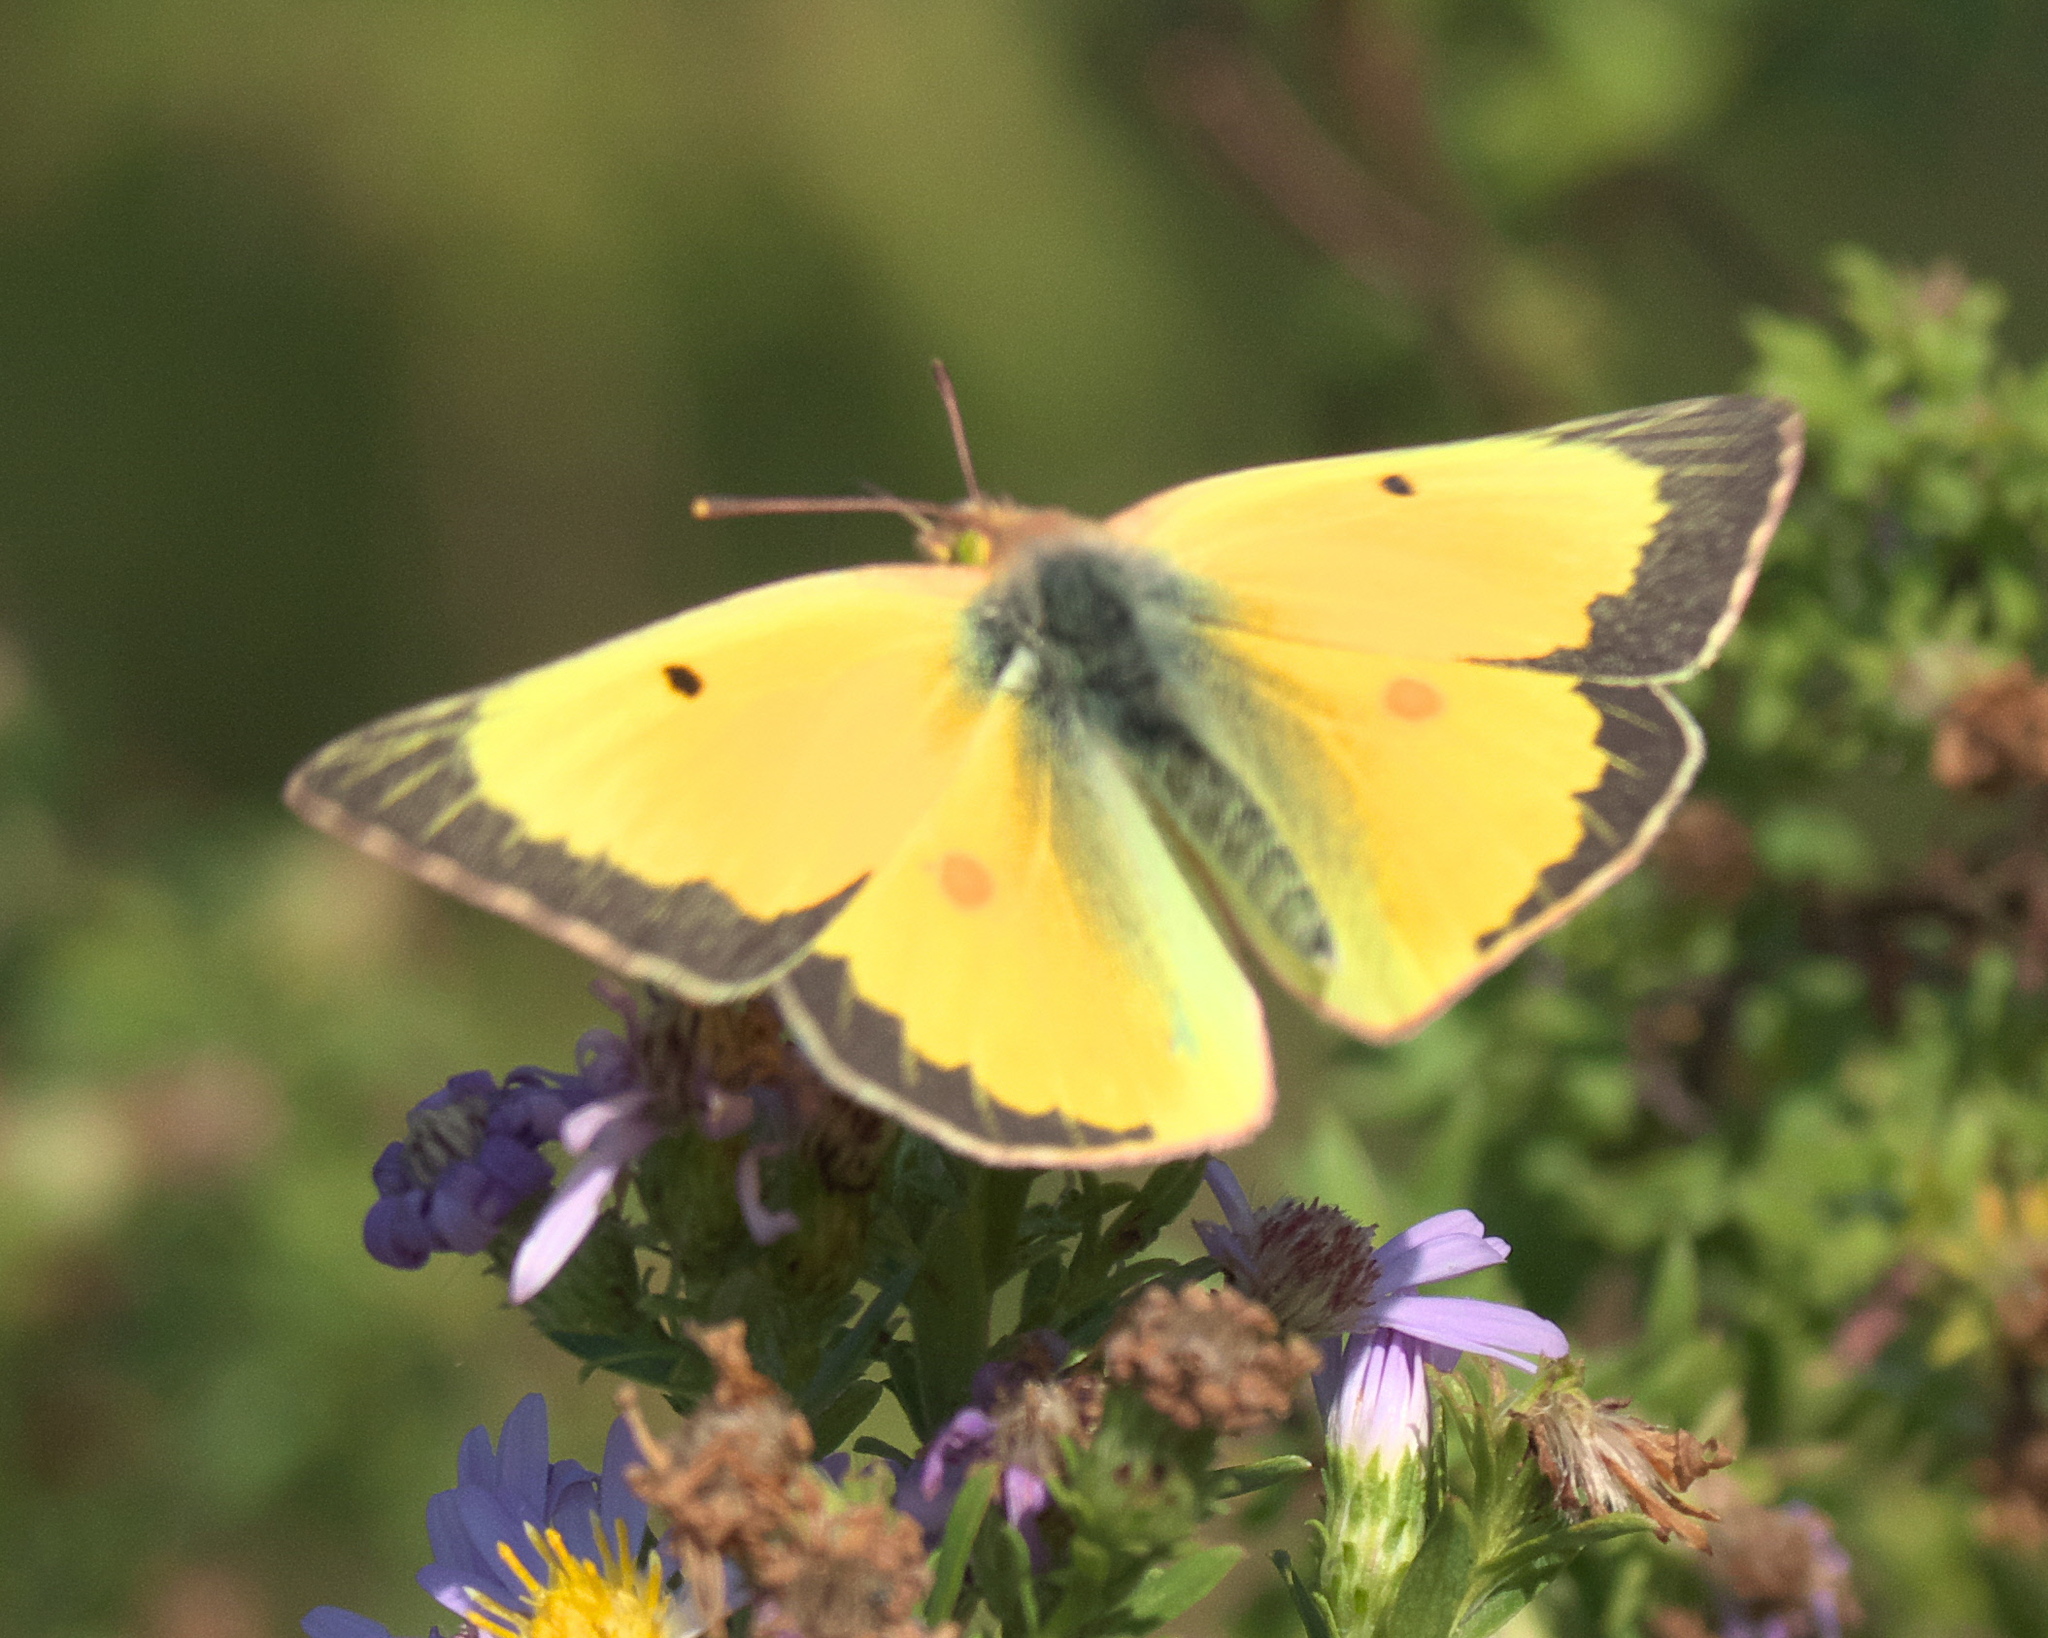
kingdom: Animalia
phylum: Arthropoda
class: Insecta
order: Lepidoptera
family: Pieridae
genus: Colias
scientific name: Colias eurytheme
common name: Alfalfa butterfly
